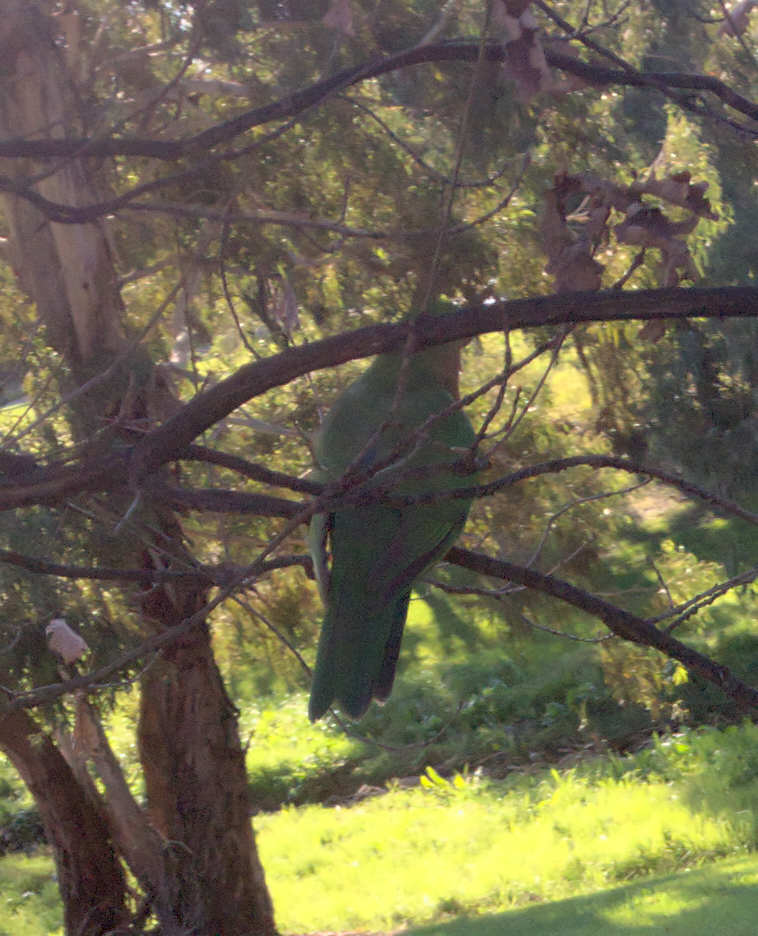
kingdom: Animalia
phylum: Chordata
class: Aves
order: Psittaciformes
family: Psittacidae
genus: Alisterus
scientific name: Alisterus scapularis
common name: Australian king parrot
